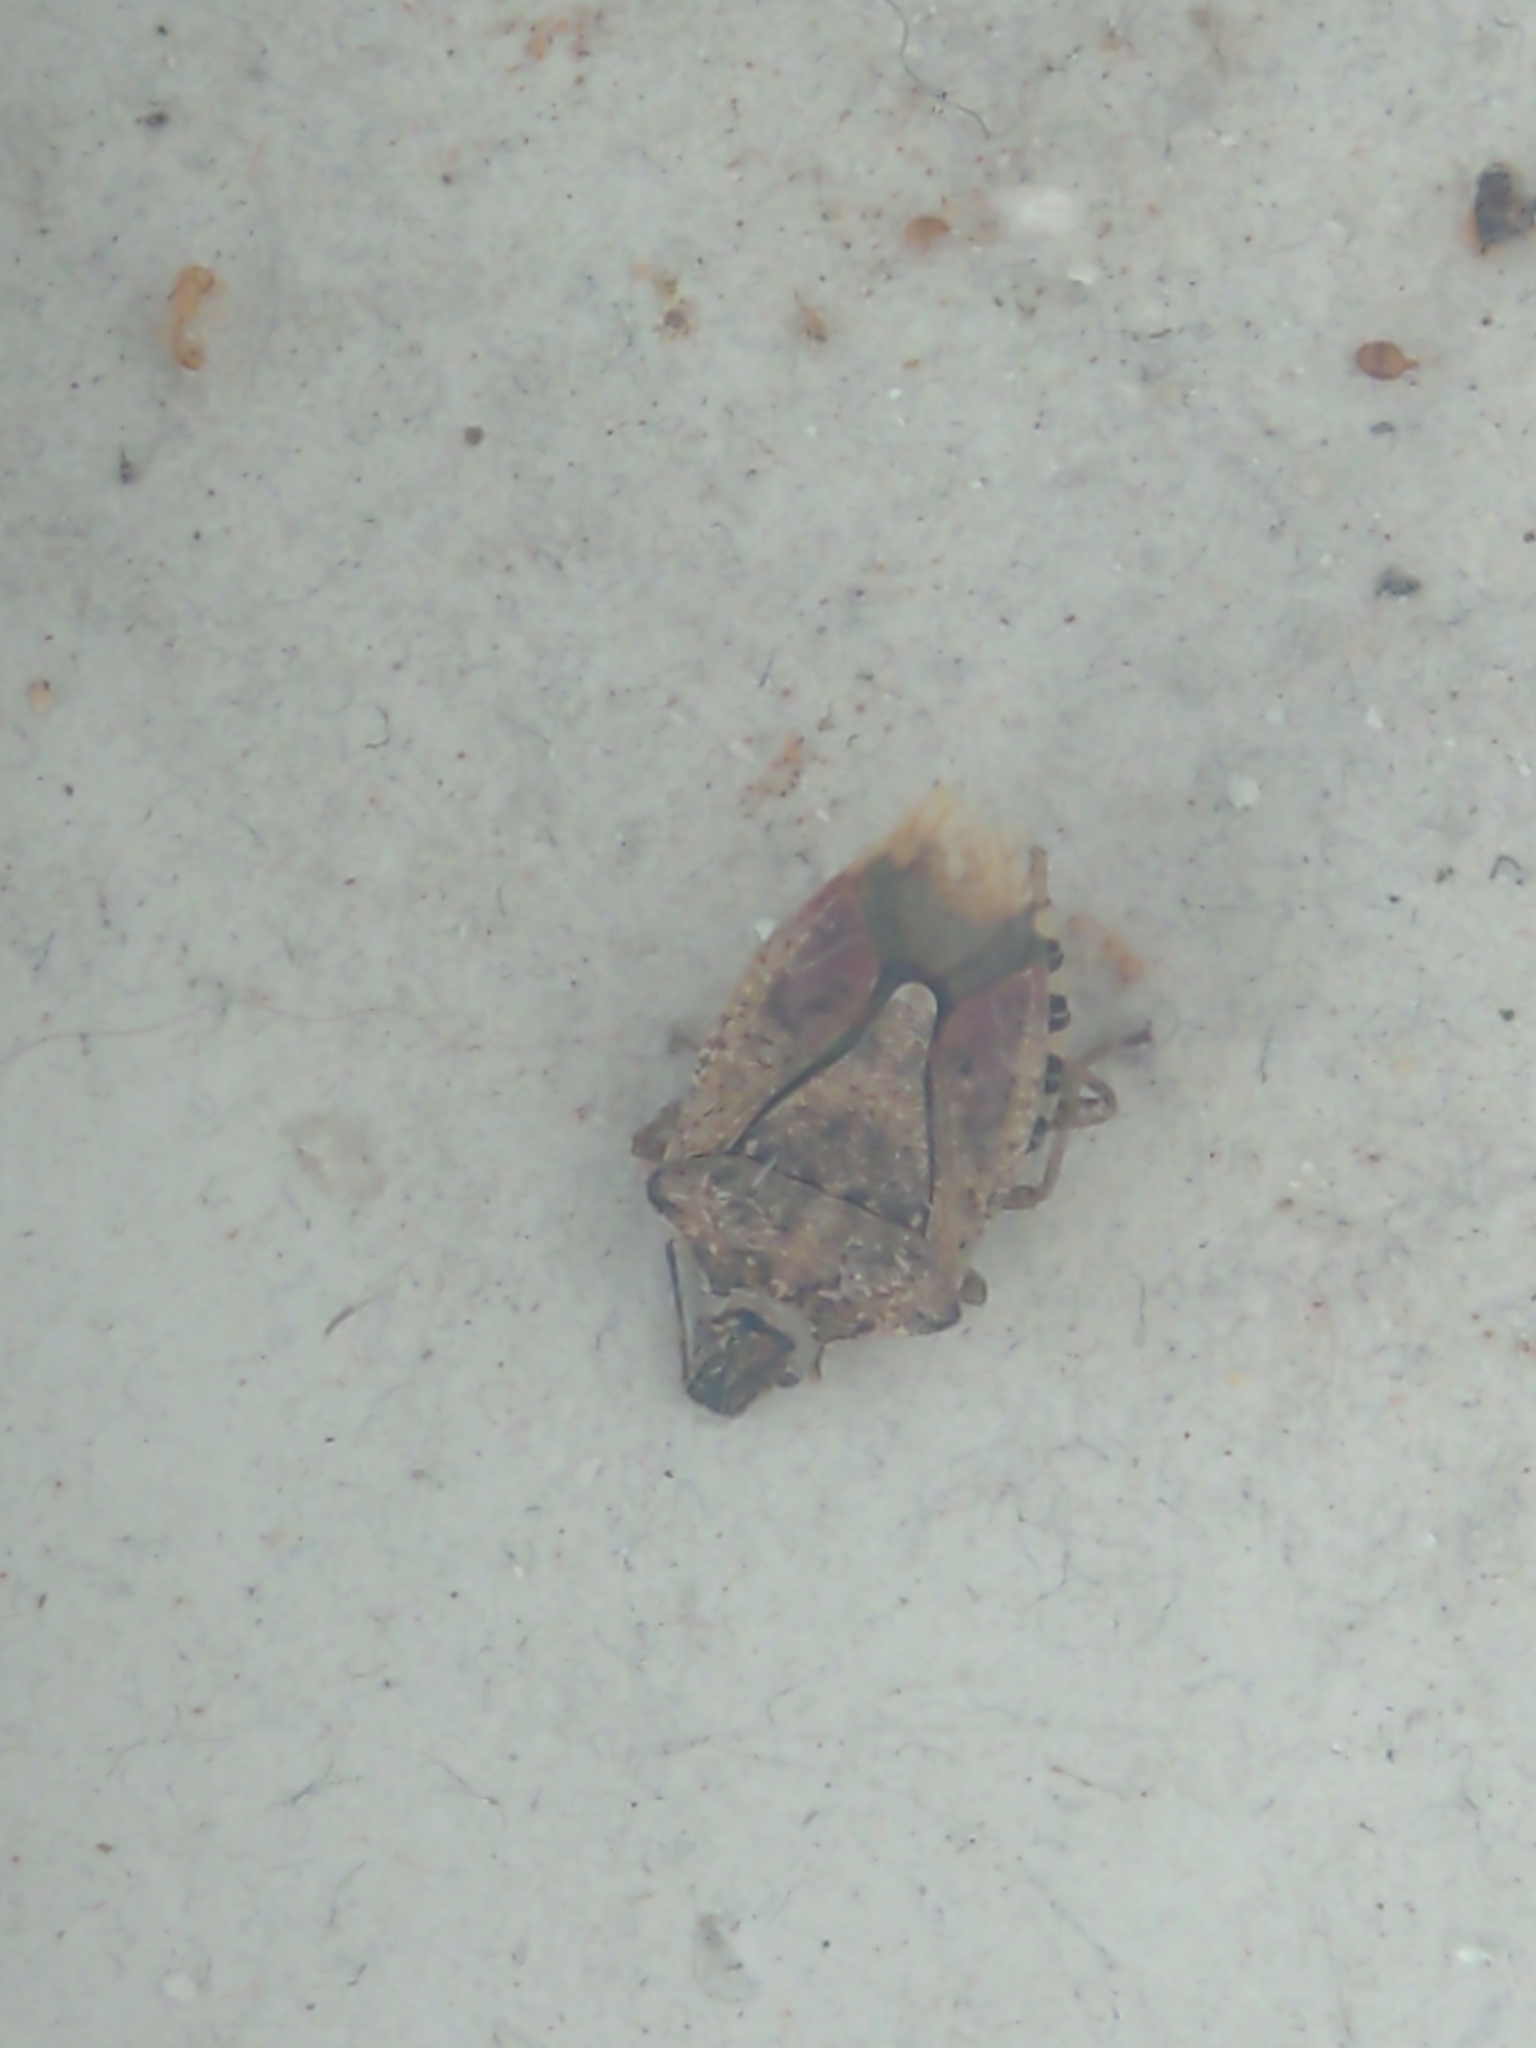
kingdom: Animalia
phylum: Arthropoda
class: Insecta
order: Hemiptera
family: Pentatomidae
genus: Halyomorpha
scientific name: Halyomorpha halys
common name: Brown marmorated stink bug
